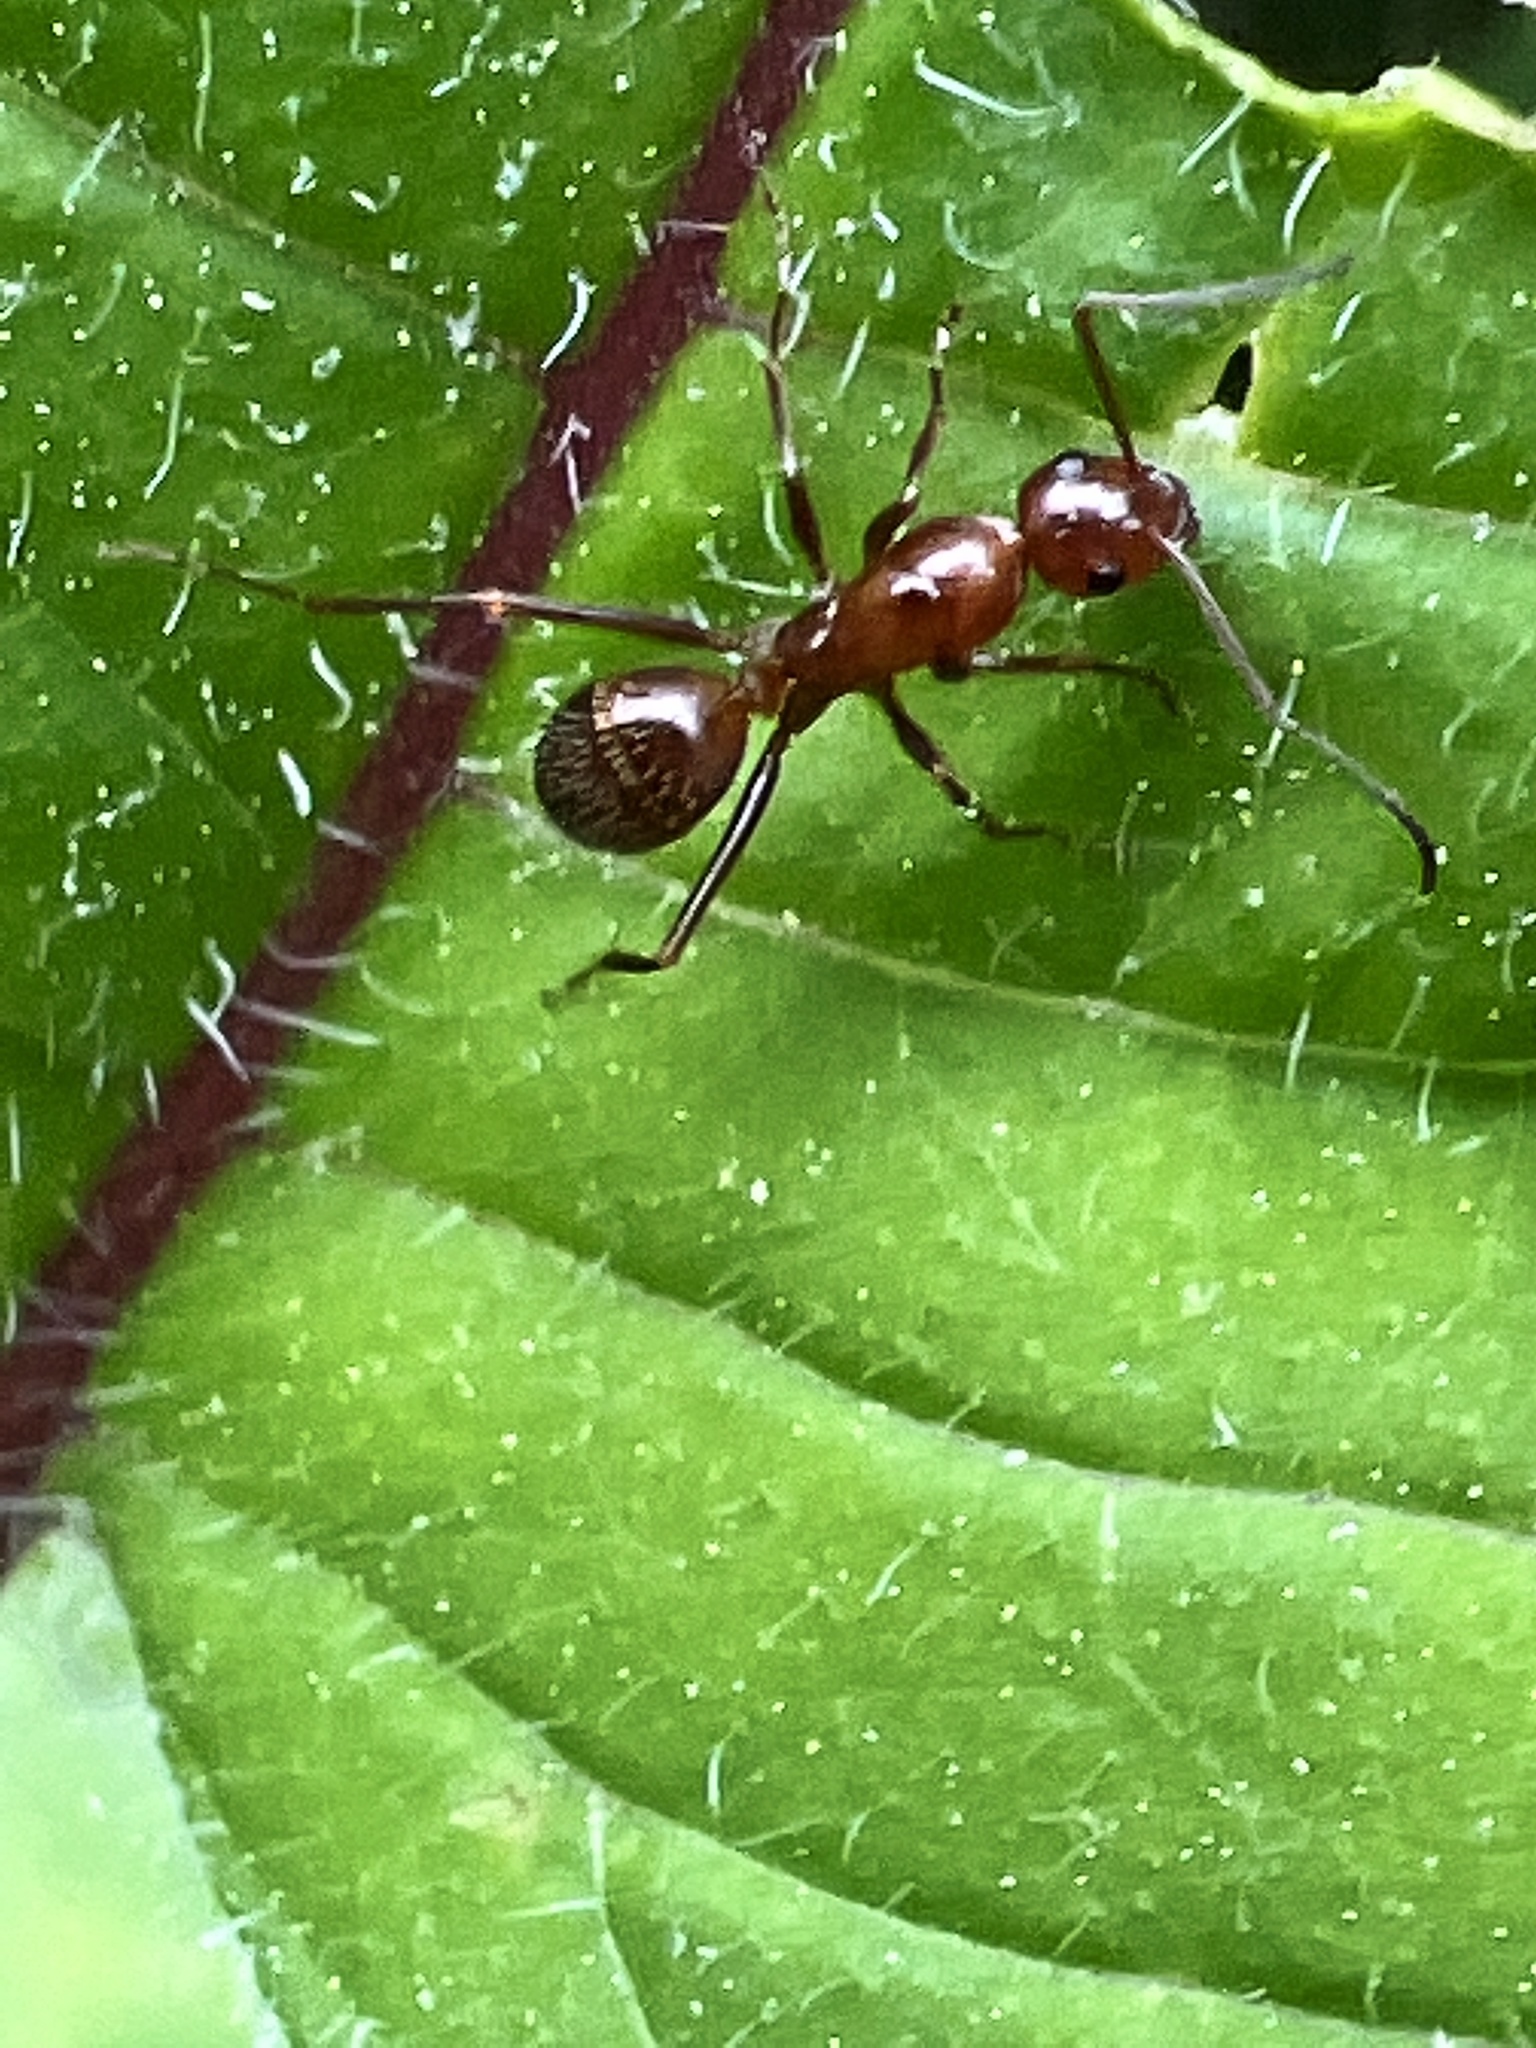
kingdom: Animalia
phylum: Arthropoda
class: Insecta
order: Hymenoptera
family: Formicidae
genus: Formica
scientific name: Formica
